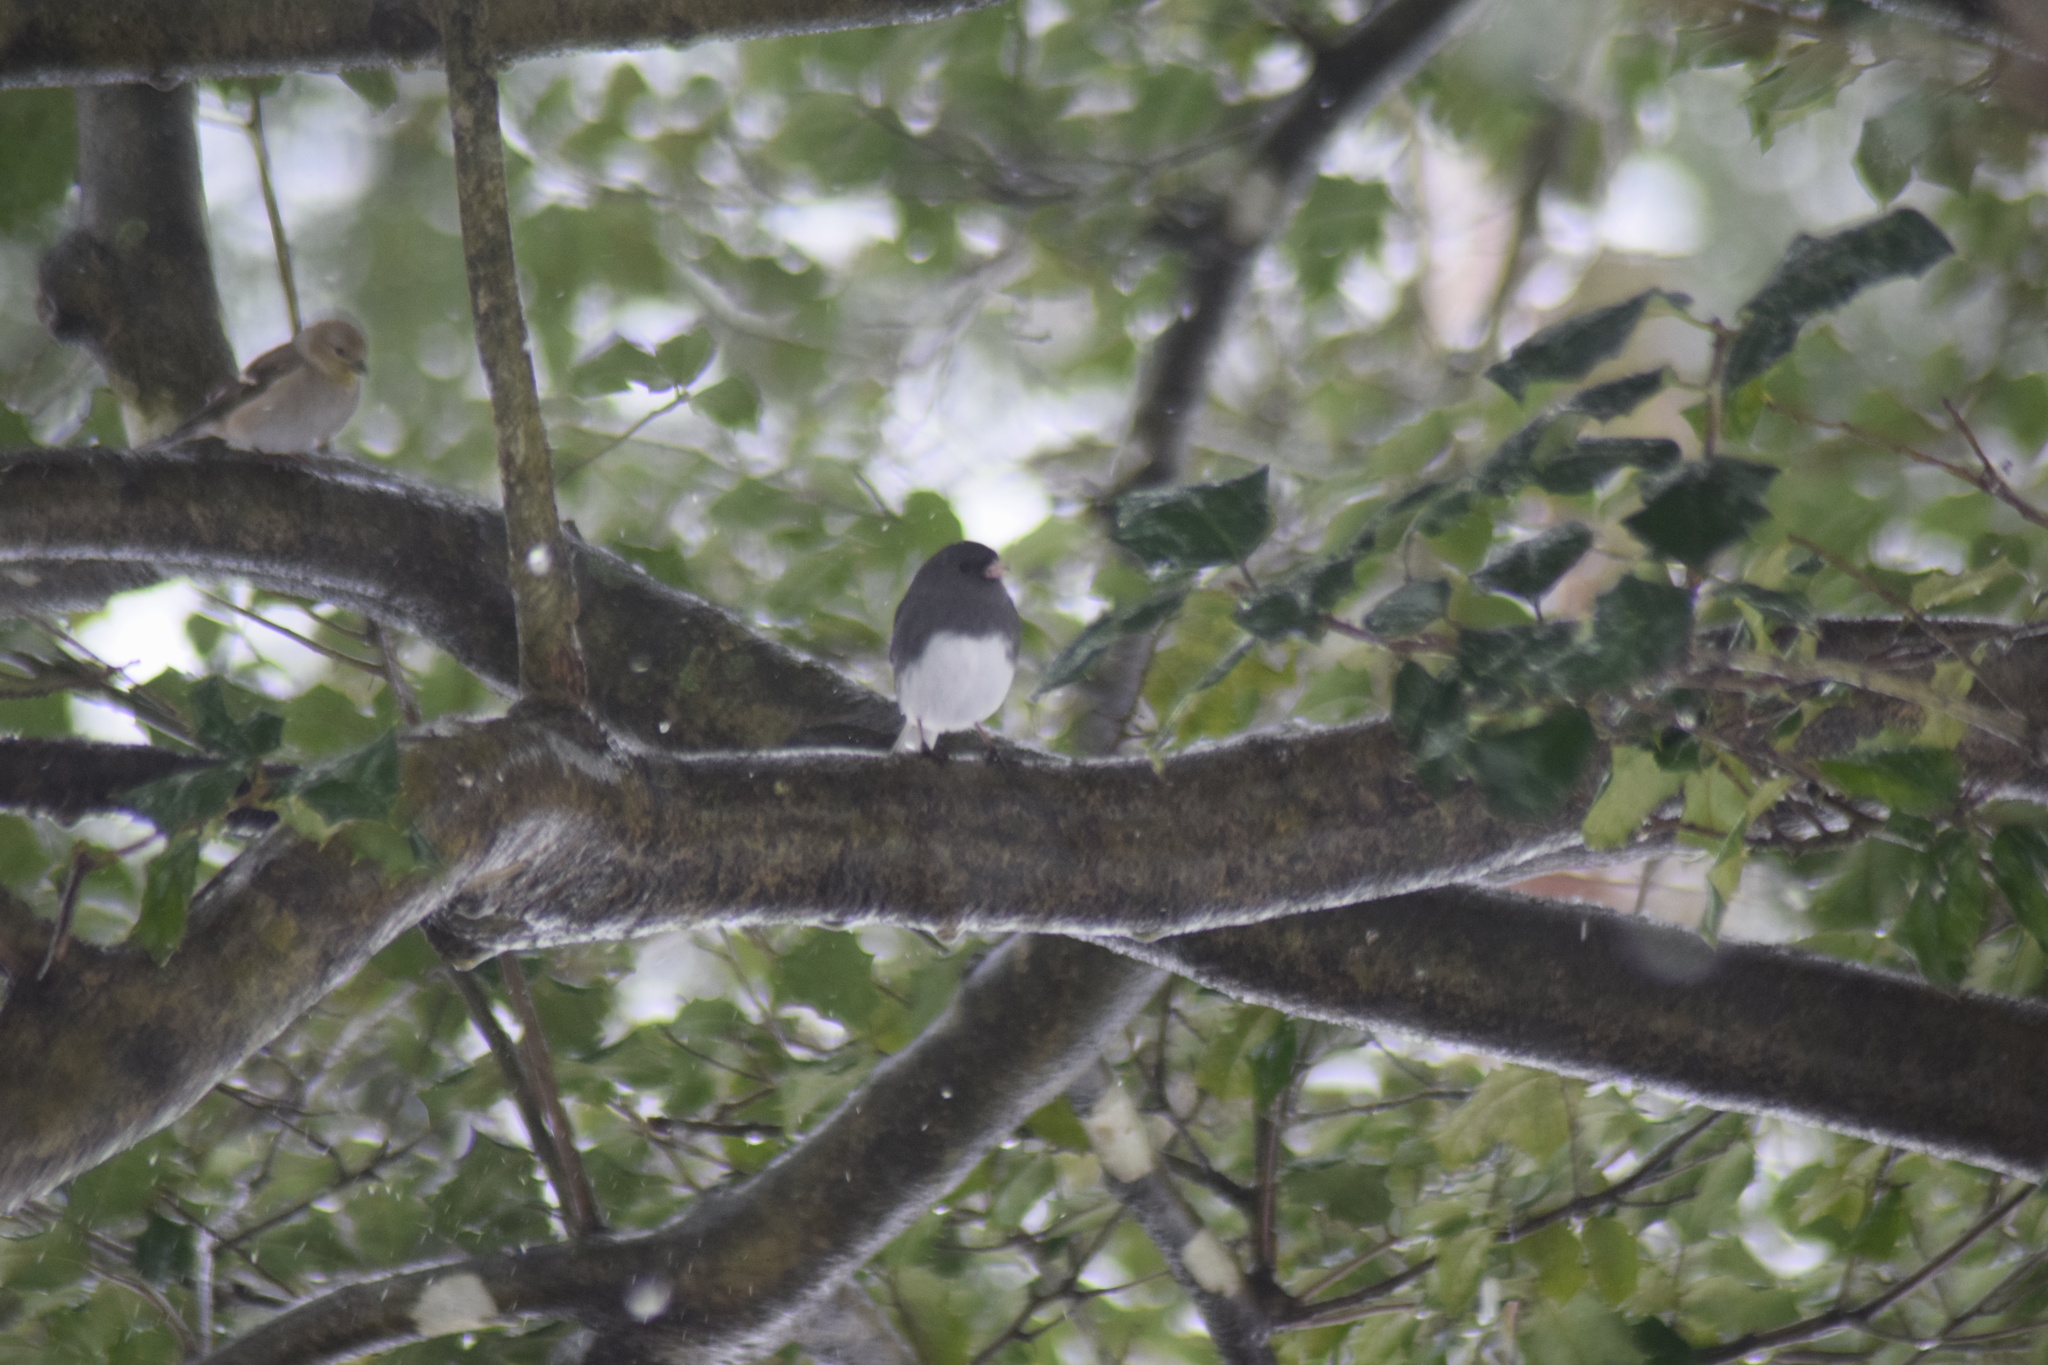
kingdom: Animalia
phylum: Chordata
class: Aves
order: Passeriformes
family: Passerellidae
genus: Junco
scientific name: Junco hyemalis
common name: Dark-eyed junco
